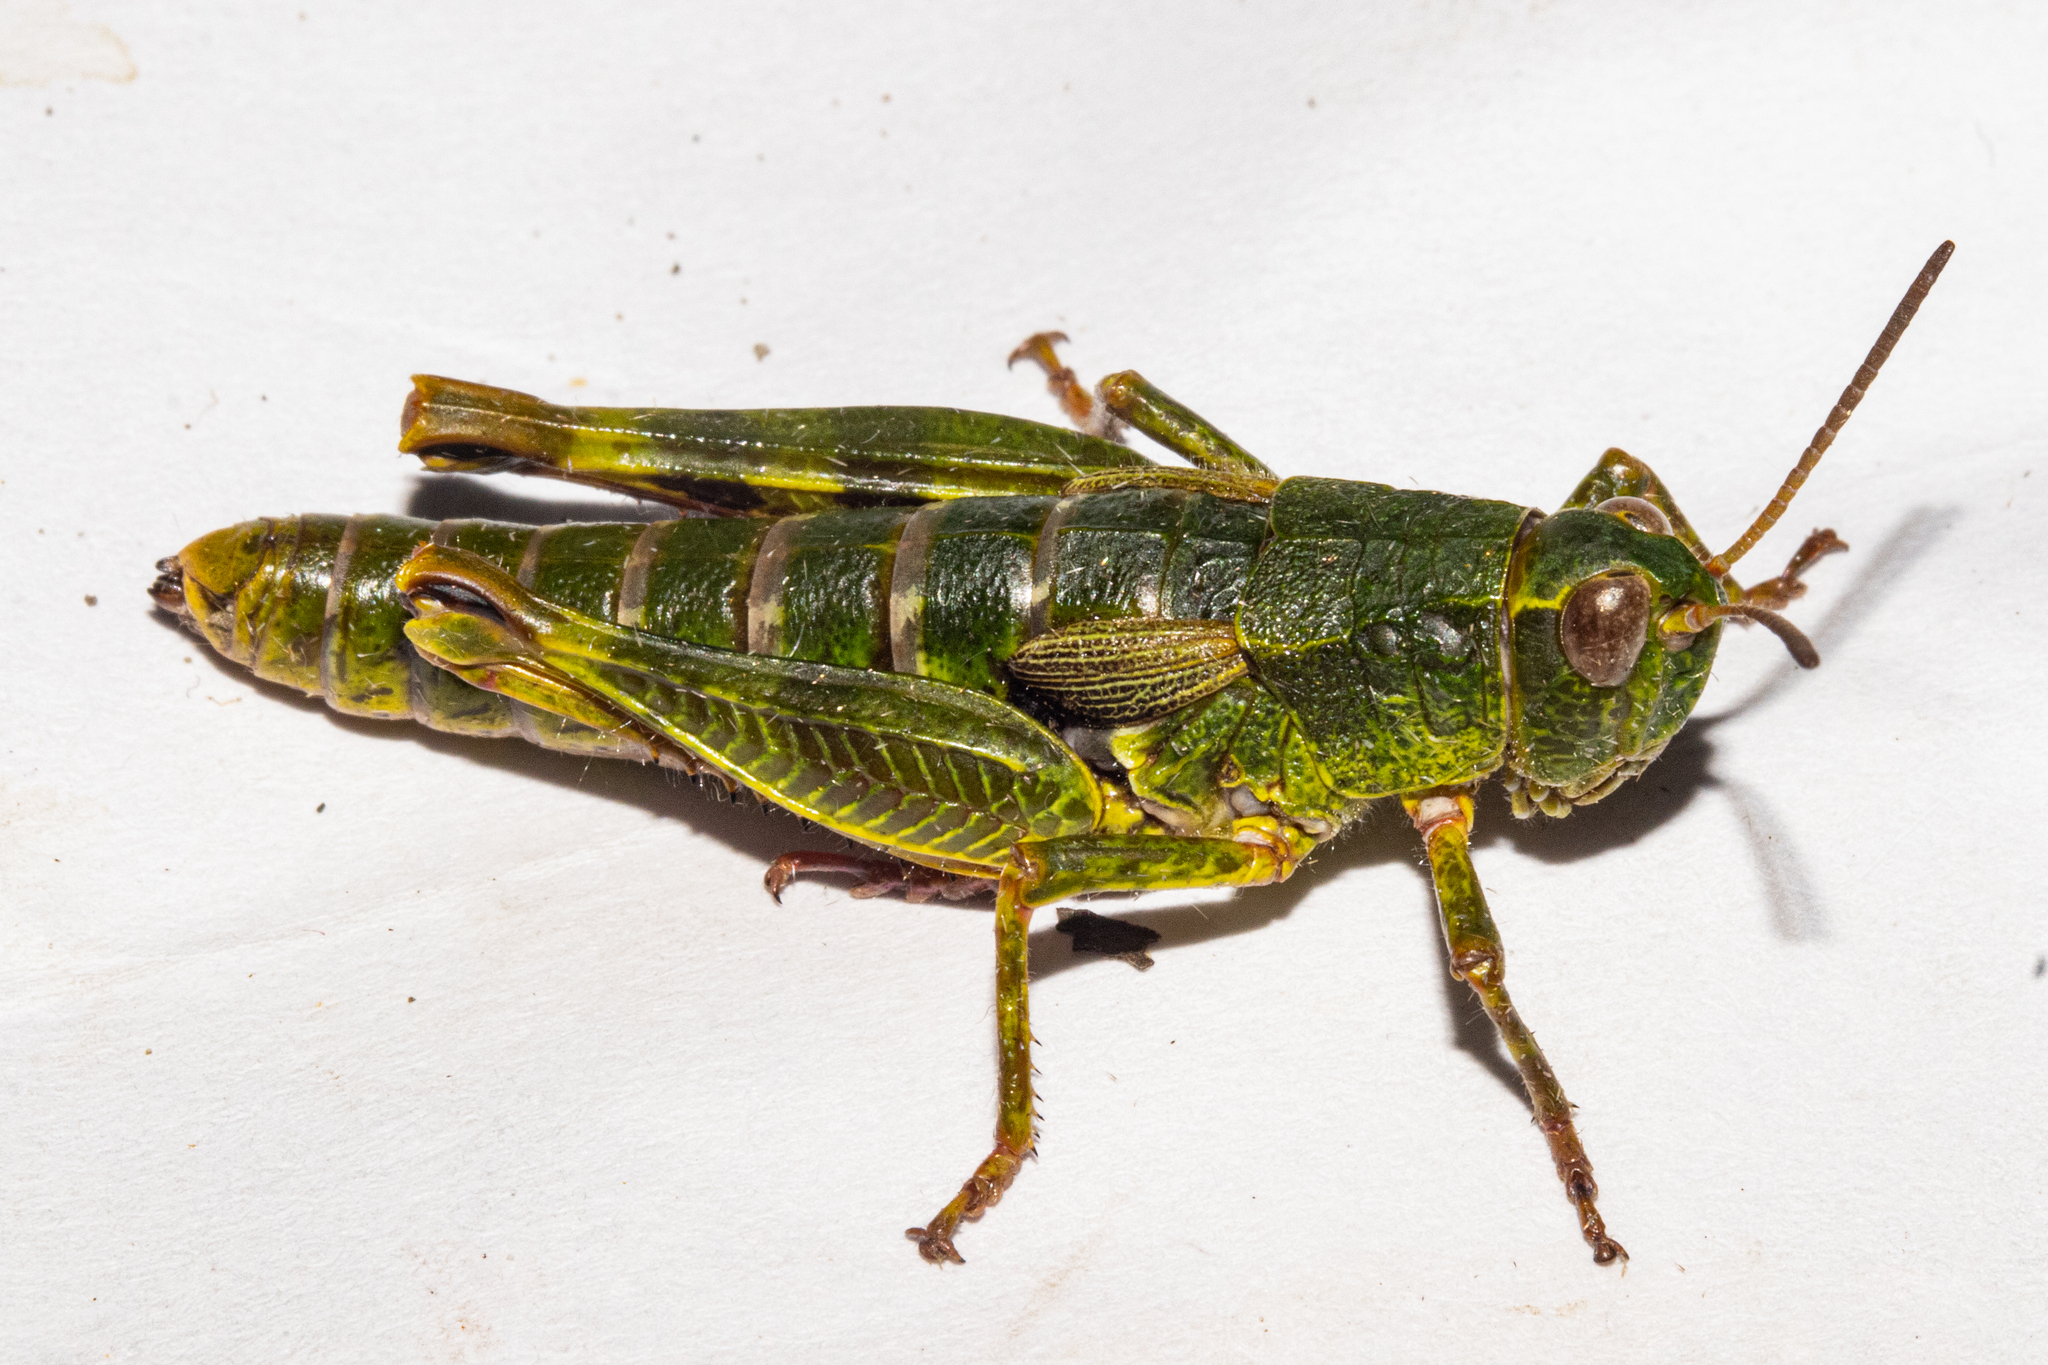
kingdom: Animalia
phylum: Arthropoda
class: Insecta
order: Orthoptera
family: Acrididae
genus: Sigaus
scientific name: Sigaus australis
